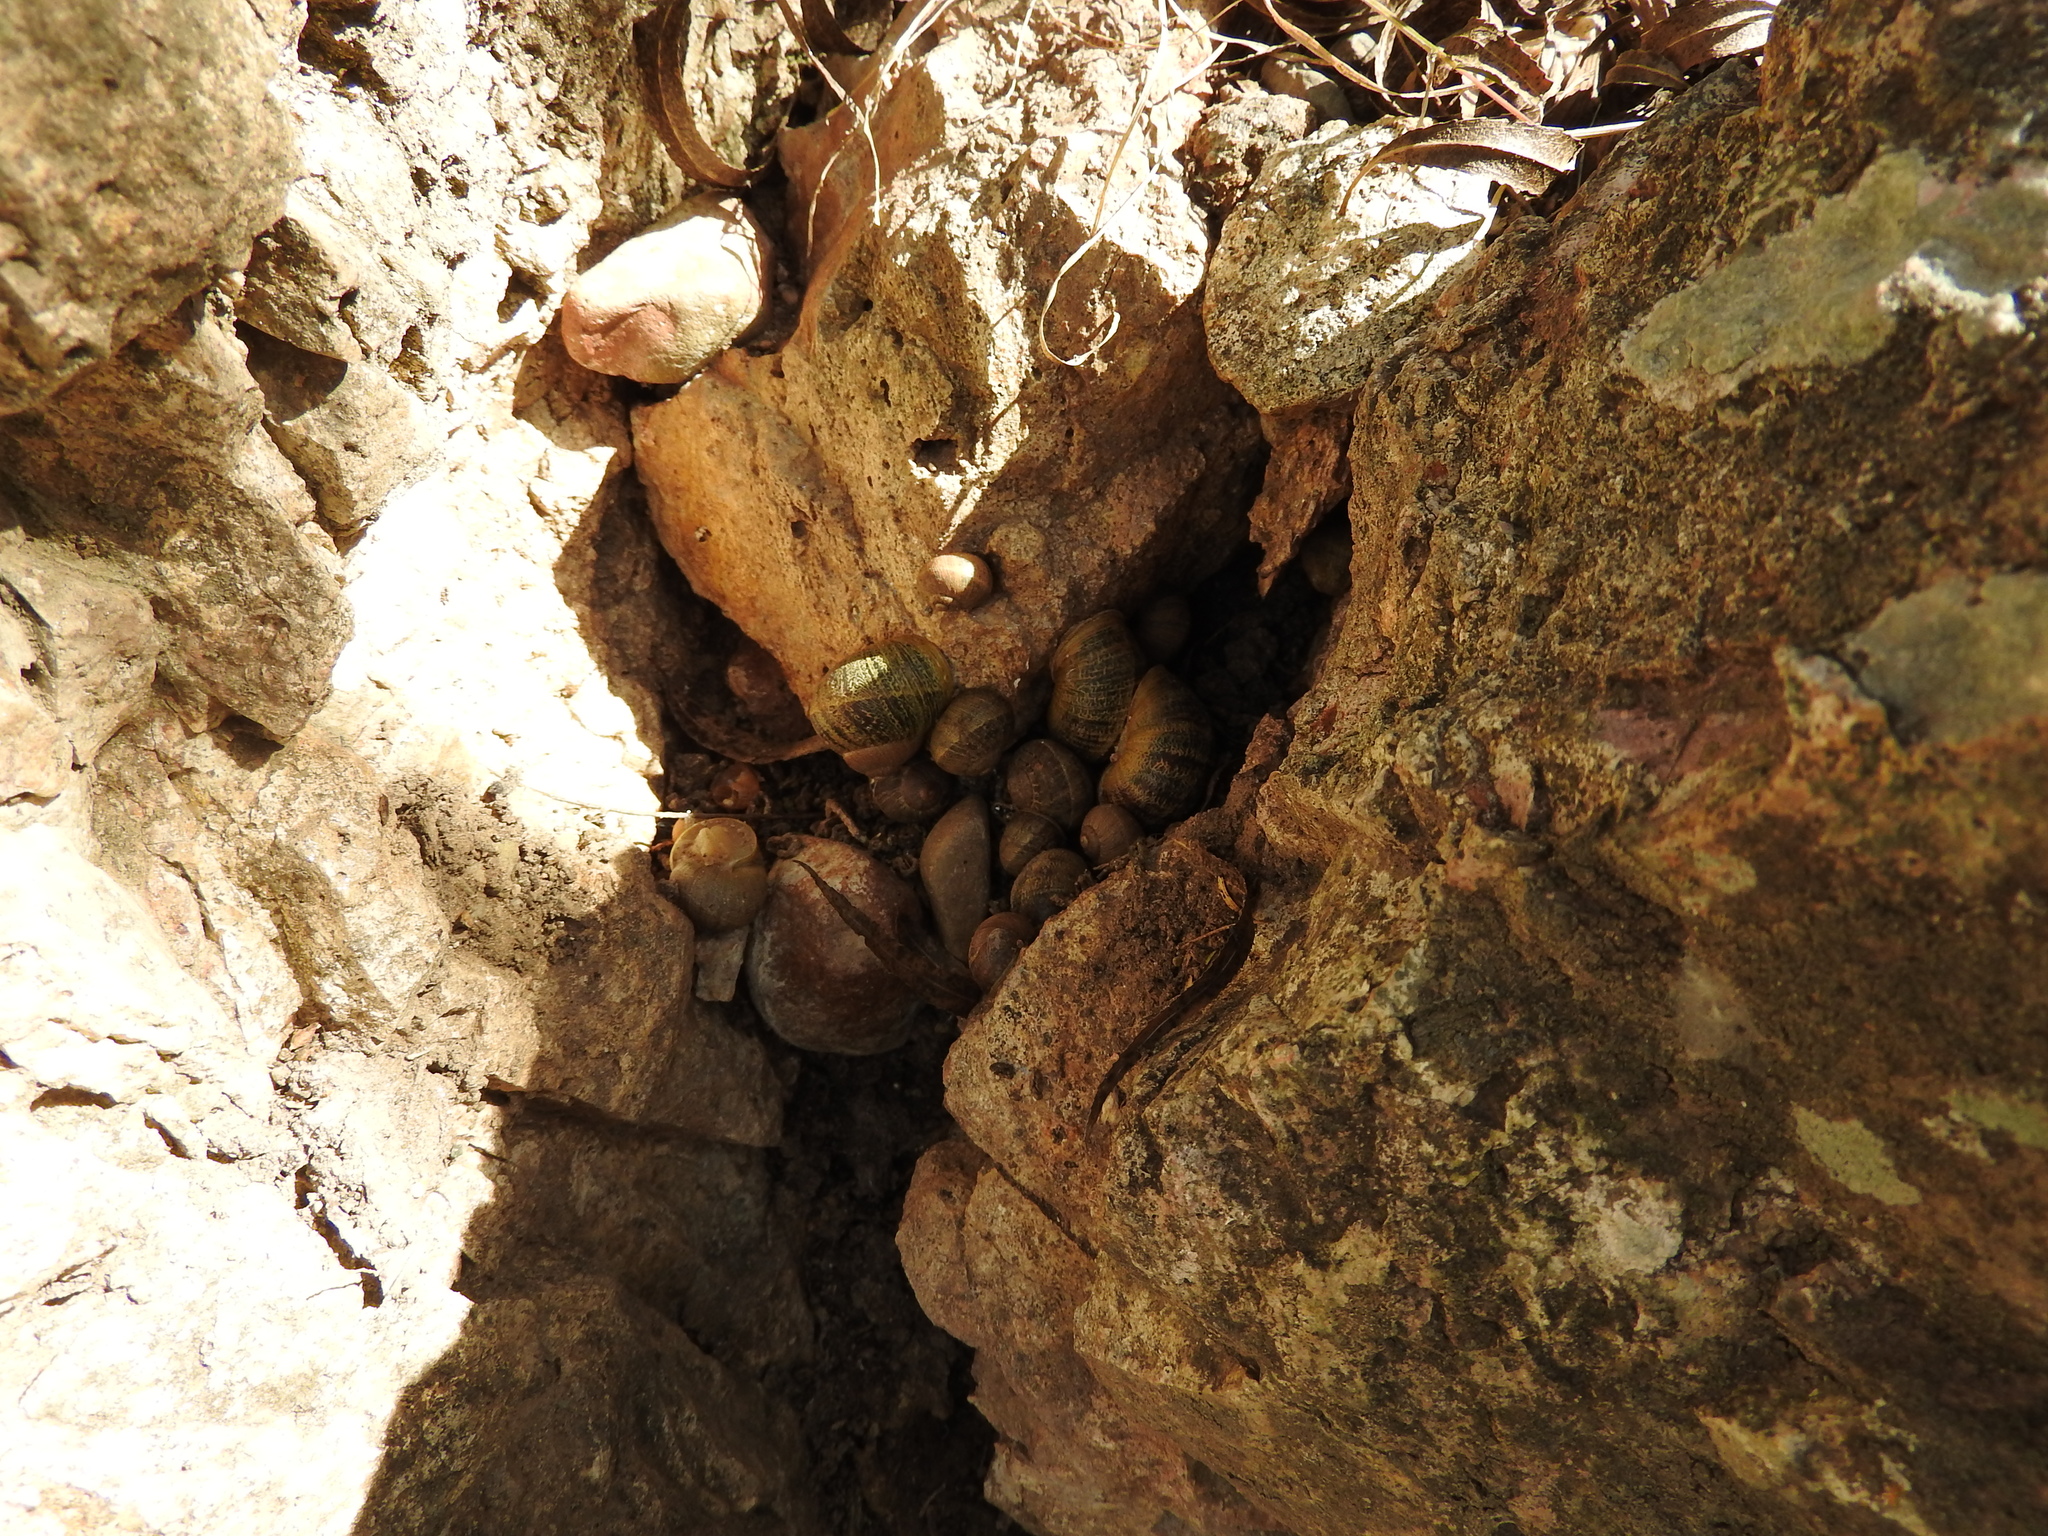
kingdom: Animalia
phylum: Mollusca
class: Gastropoda
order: Stylommatophora
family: Helicidae
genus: Cornu
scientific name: Cornu aspersum
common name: Brown garden snail
